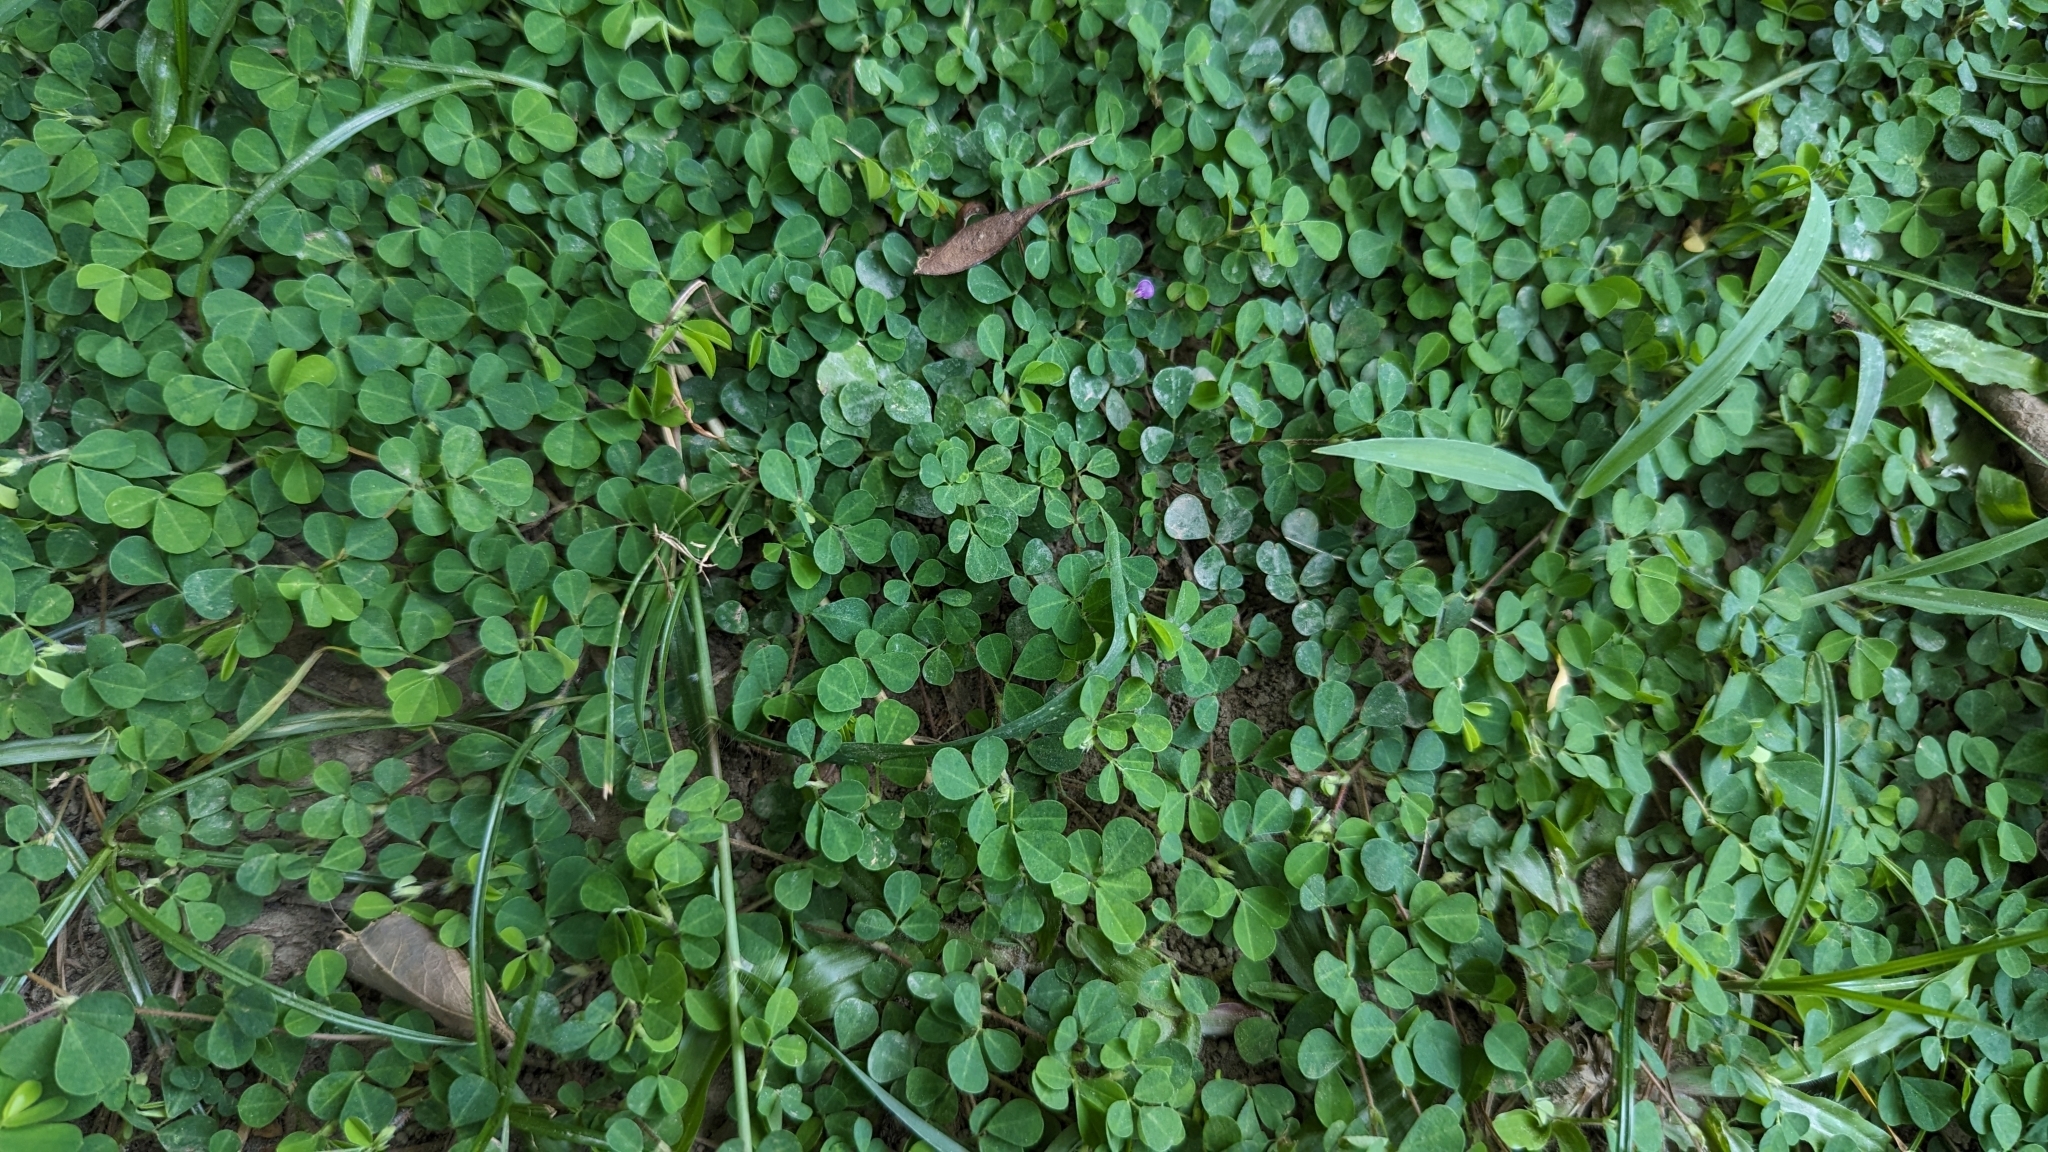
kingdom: Plantae
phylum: Tracheophyta
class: Magnoliopsida
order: Fabales
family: Fabaceae
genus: Grona
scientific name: Grona triflora
